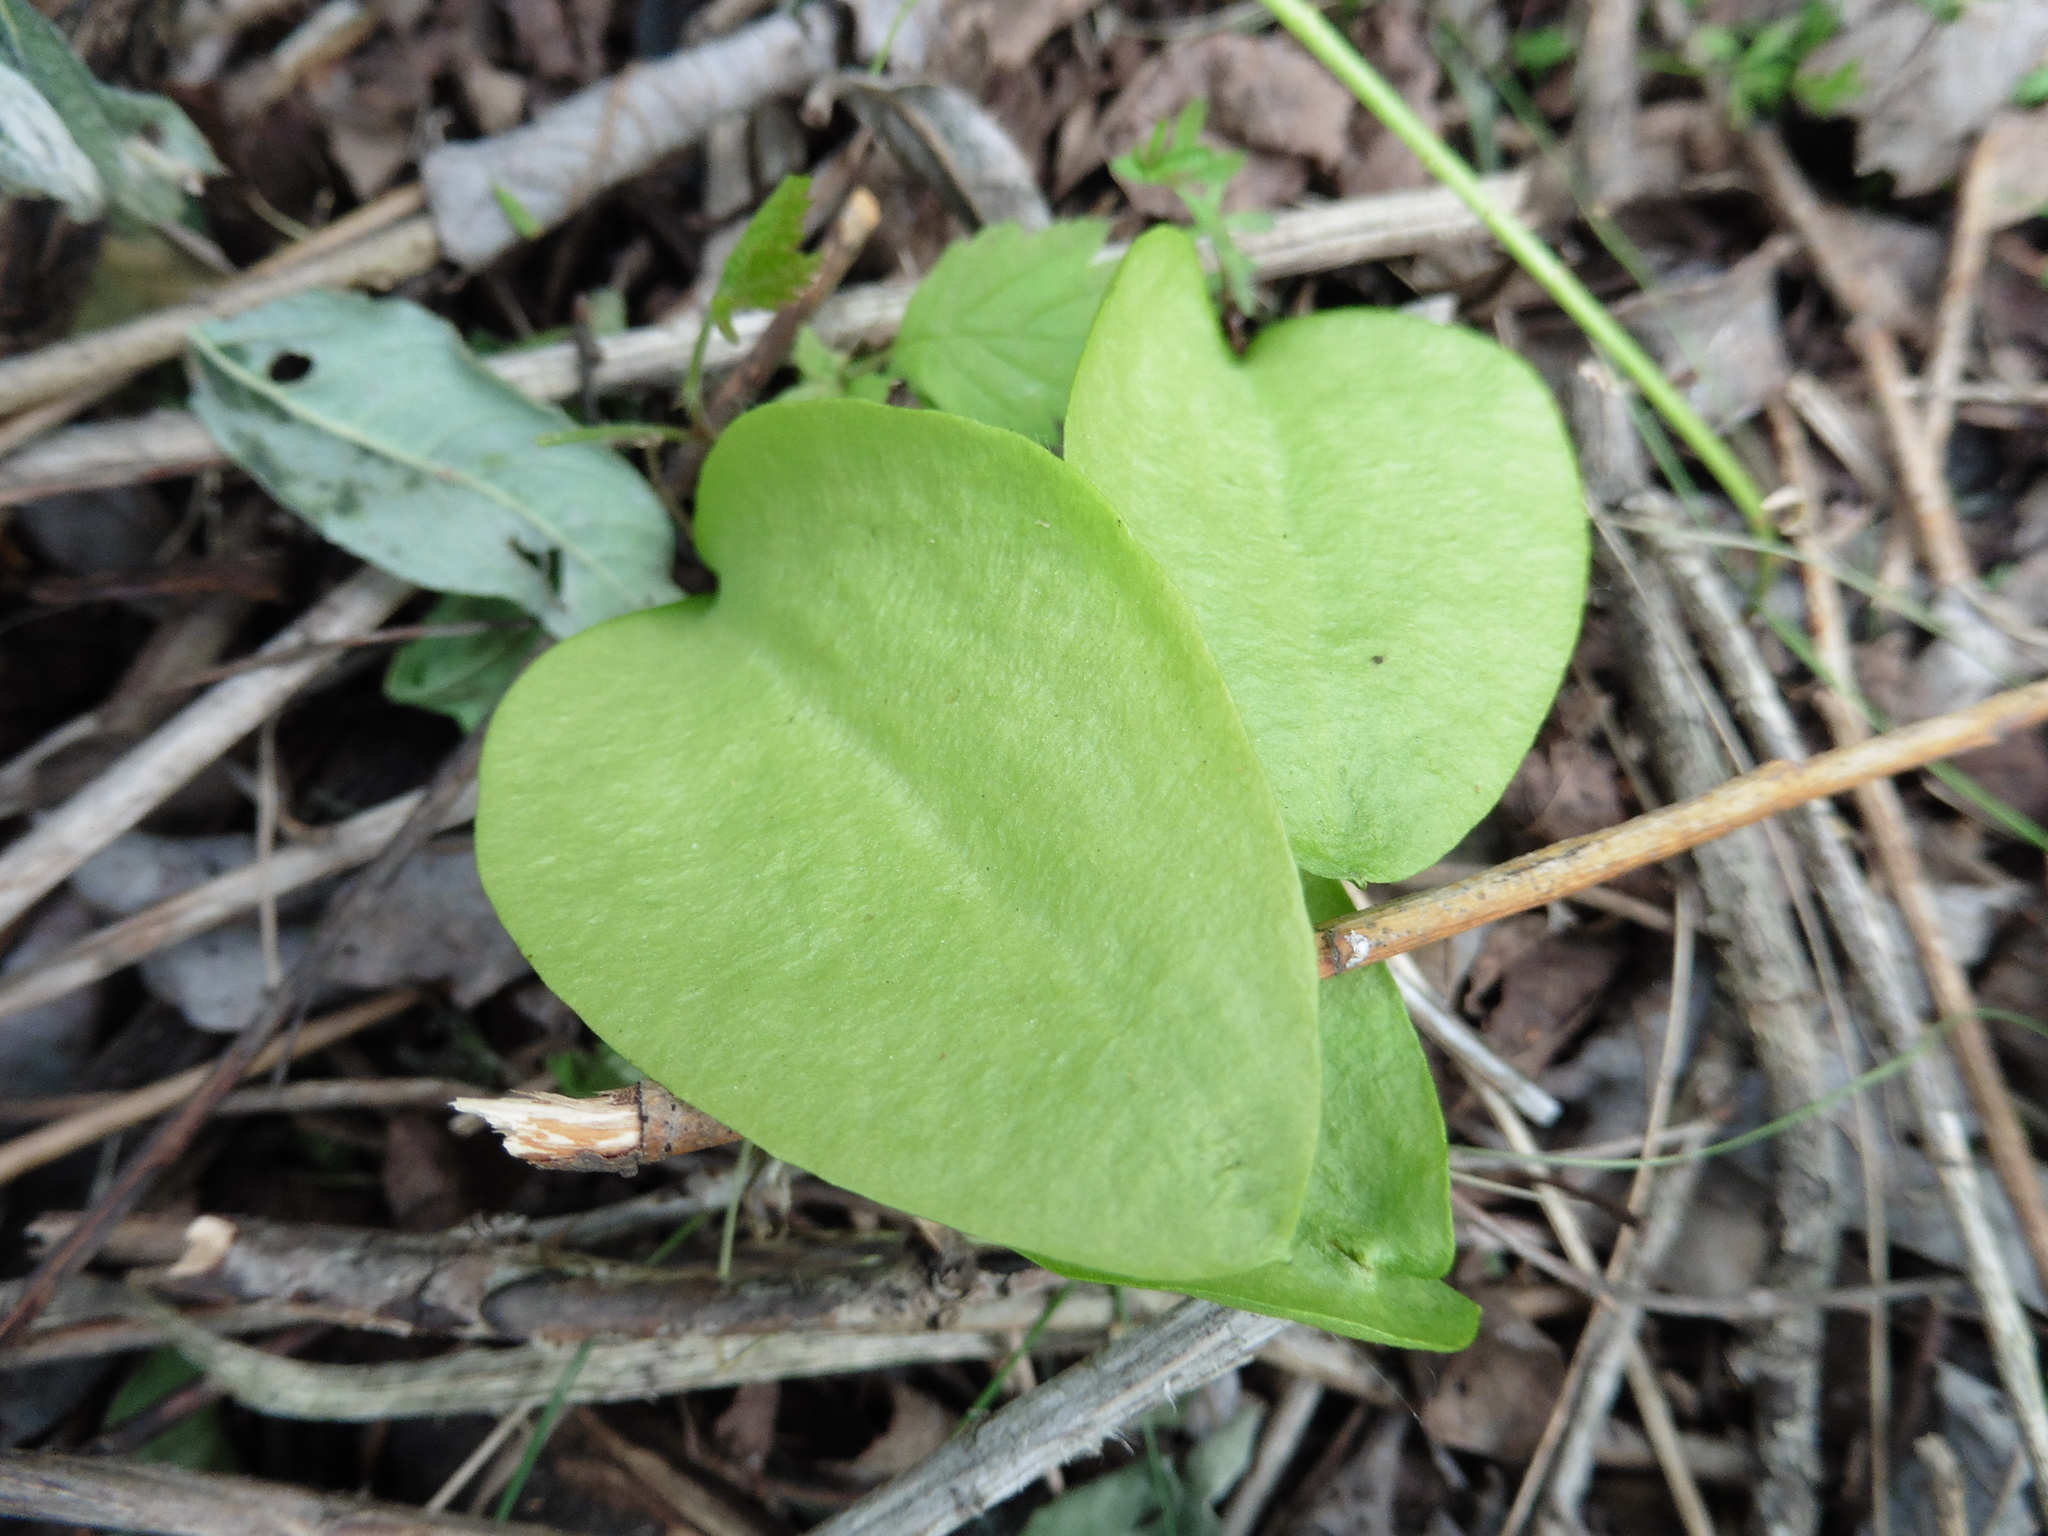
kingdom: Plantae
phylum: Tracheophyta
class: Polypodiopsida
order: Ophioglossales
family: Ophioglossaceae
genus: Ophioglossum
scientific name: Ophioglossum vulgatum
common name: Adder's-tongue
